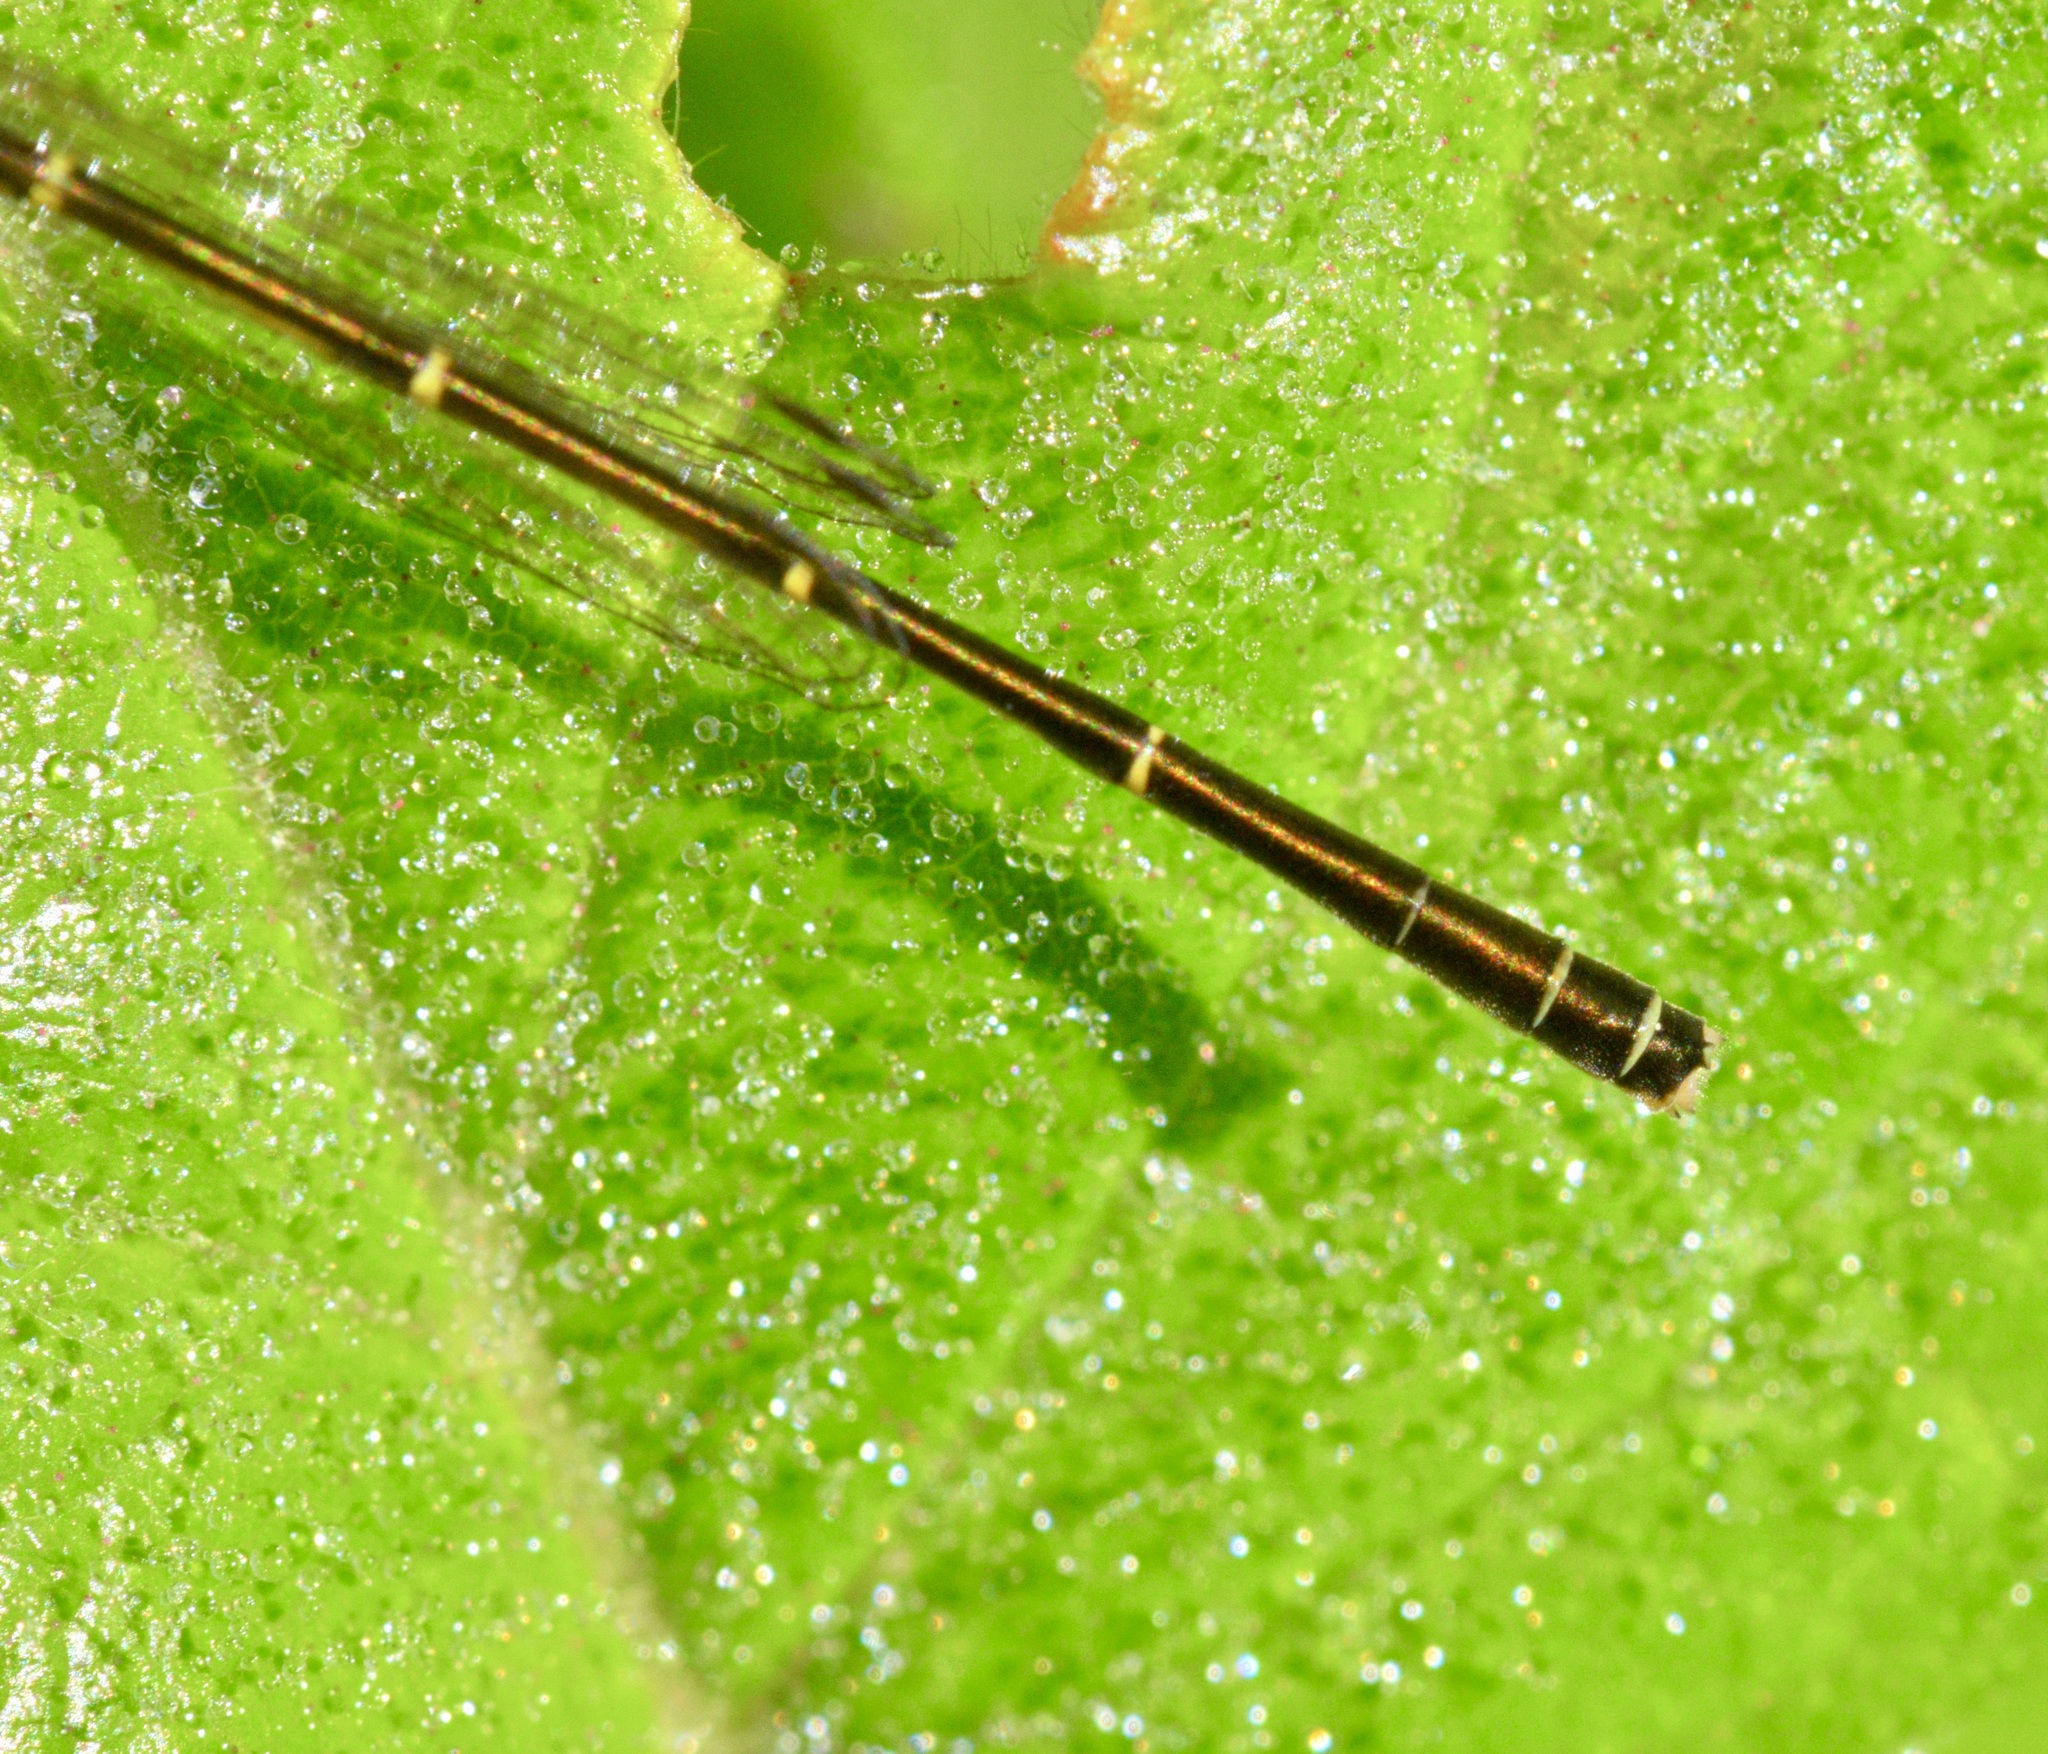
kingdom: Animalia
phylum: Arthropoda
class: Insecta
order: Odonata
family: Coenagrionidae
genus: Ischnura
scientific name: Ischnura posita
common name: Fragile forktail
